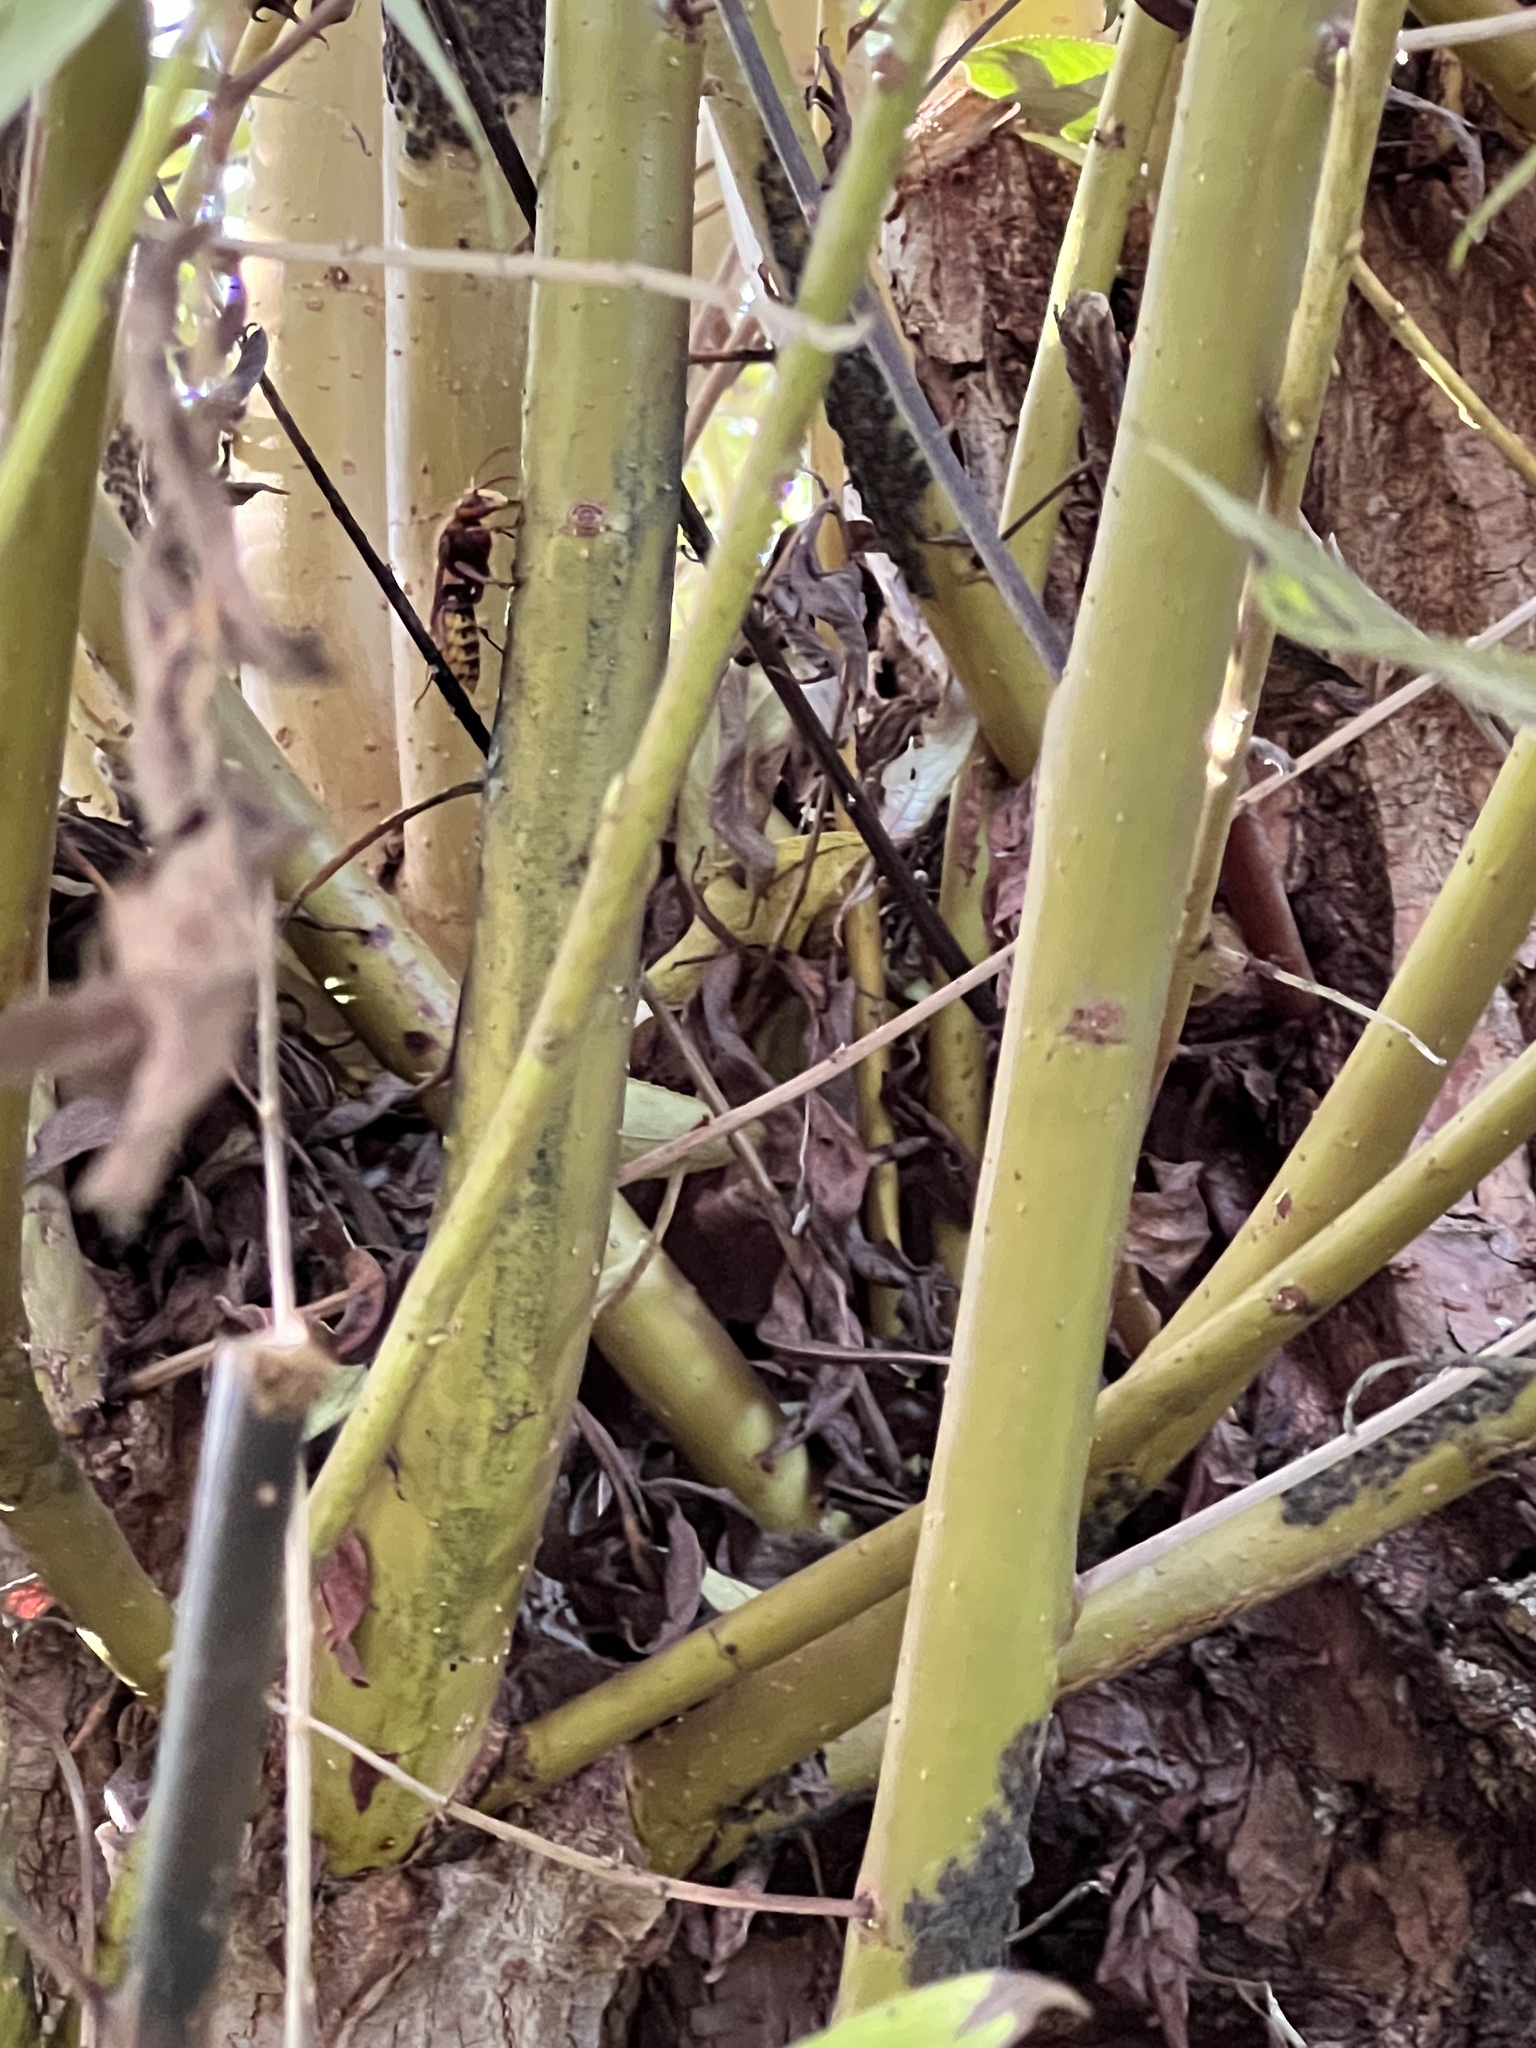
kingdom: Animalia
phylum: Arthropoda
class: Insecta
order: Hymenoptera
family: Vespidae
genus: Vespa
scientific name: Vespa crabro
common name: Hornet
